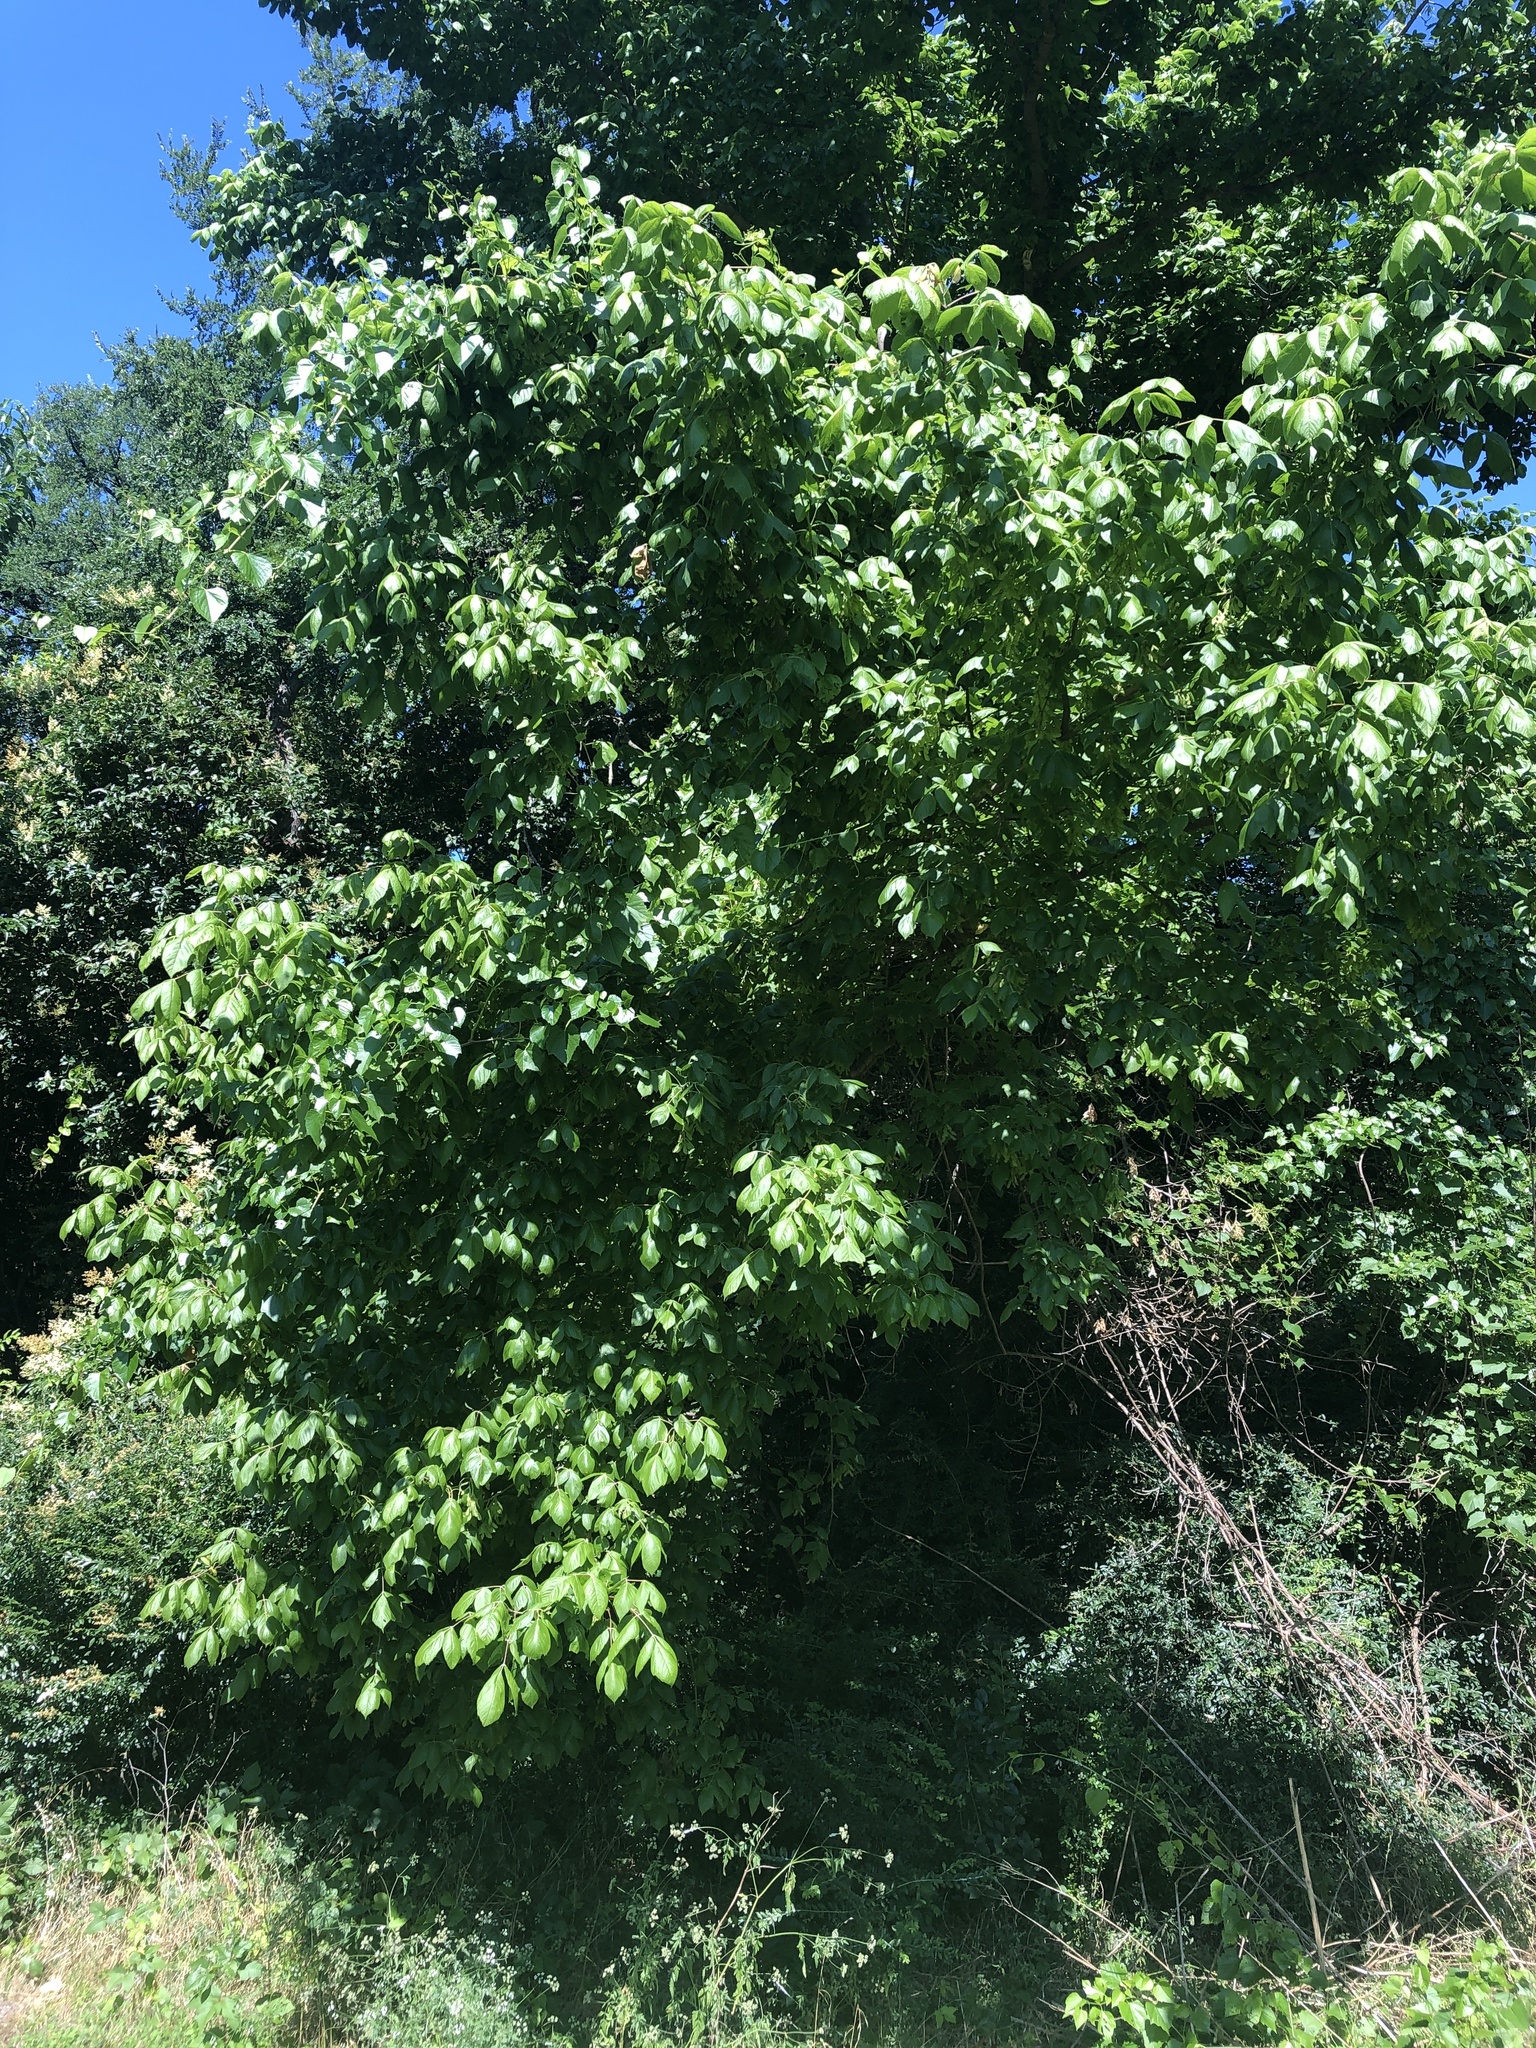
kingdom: Plantae
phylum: Tracheophyta
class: Magnoliopsida
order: Sapindales
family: Sapindaceae
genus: Acer
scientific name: Acer negundo
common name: Ashleaf maple
